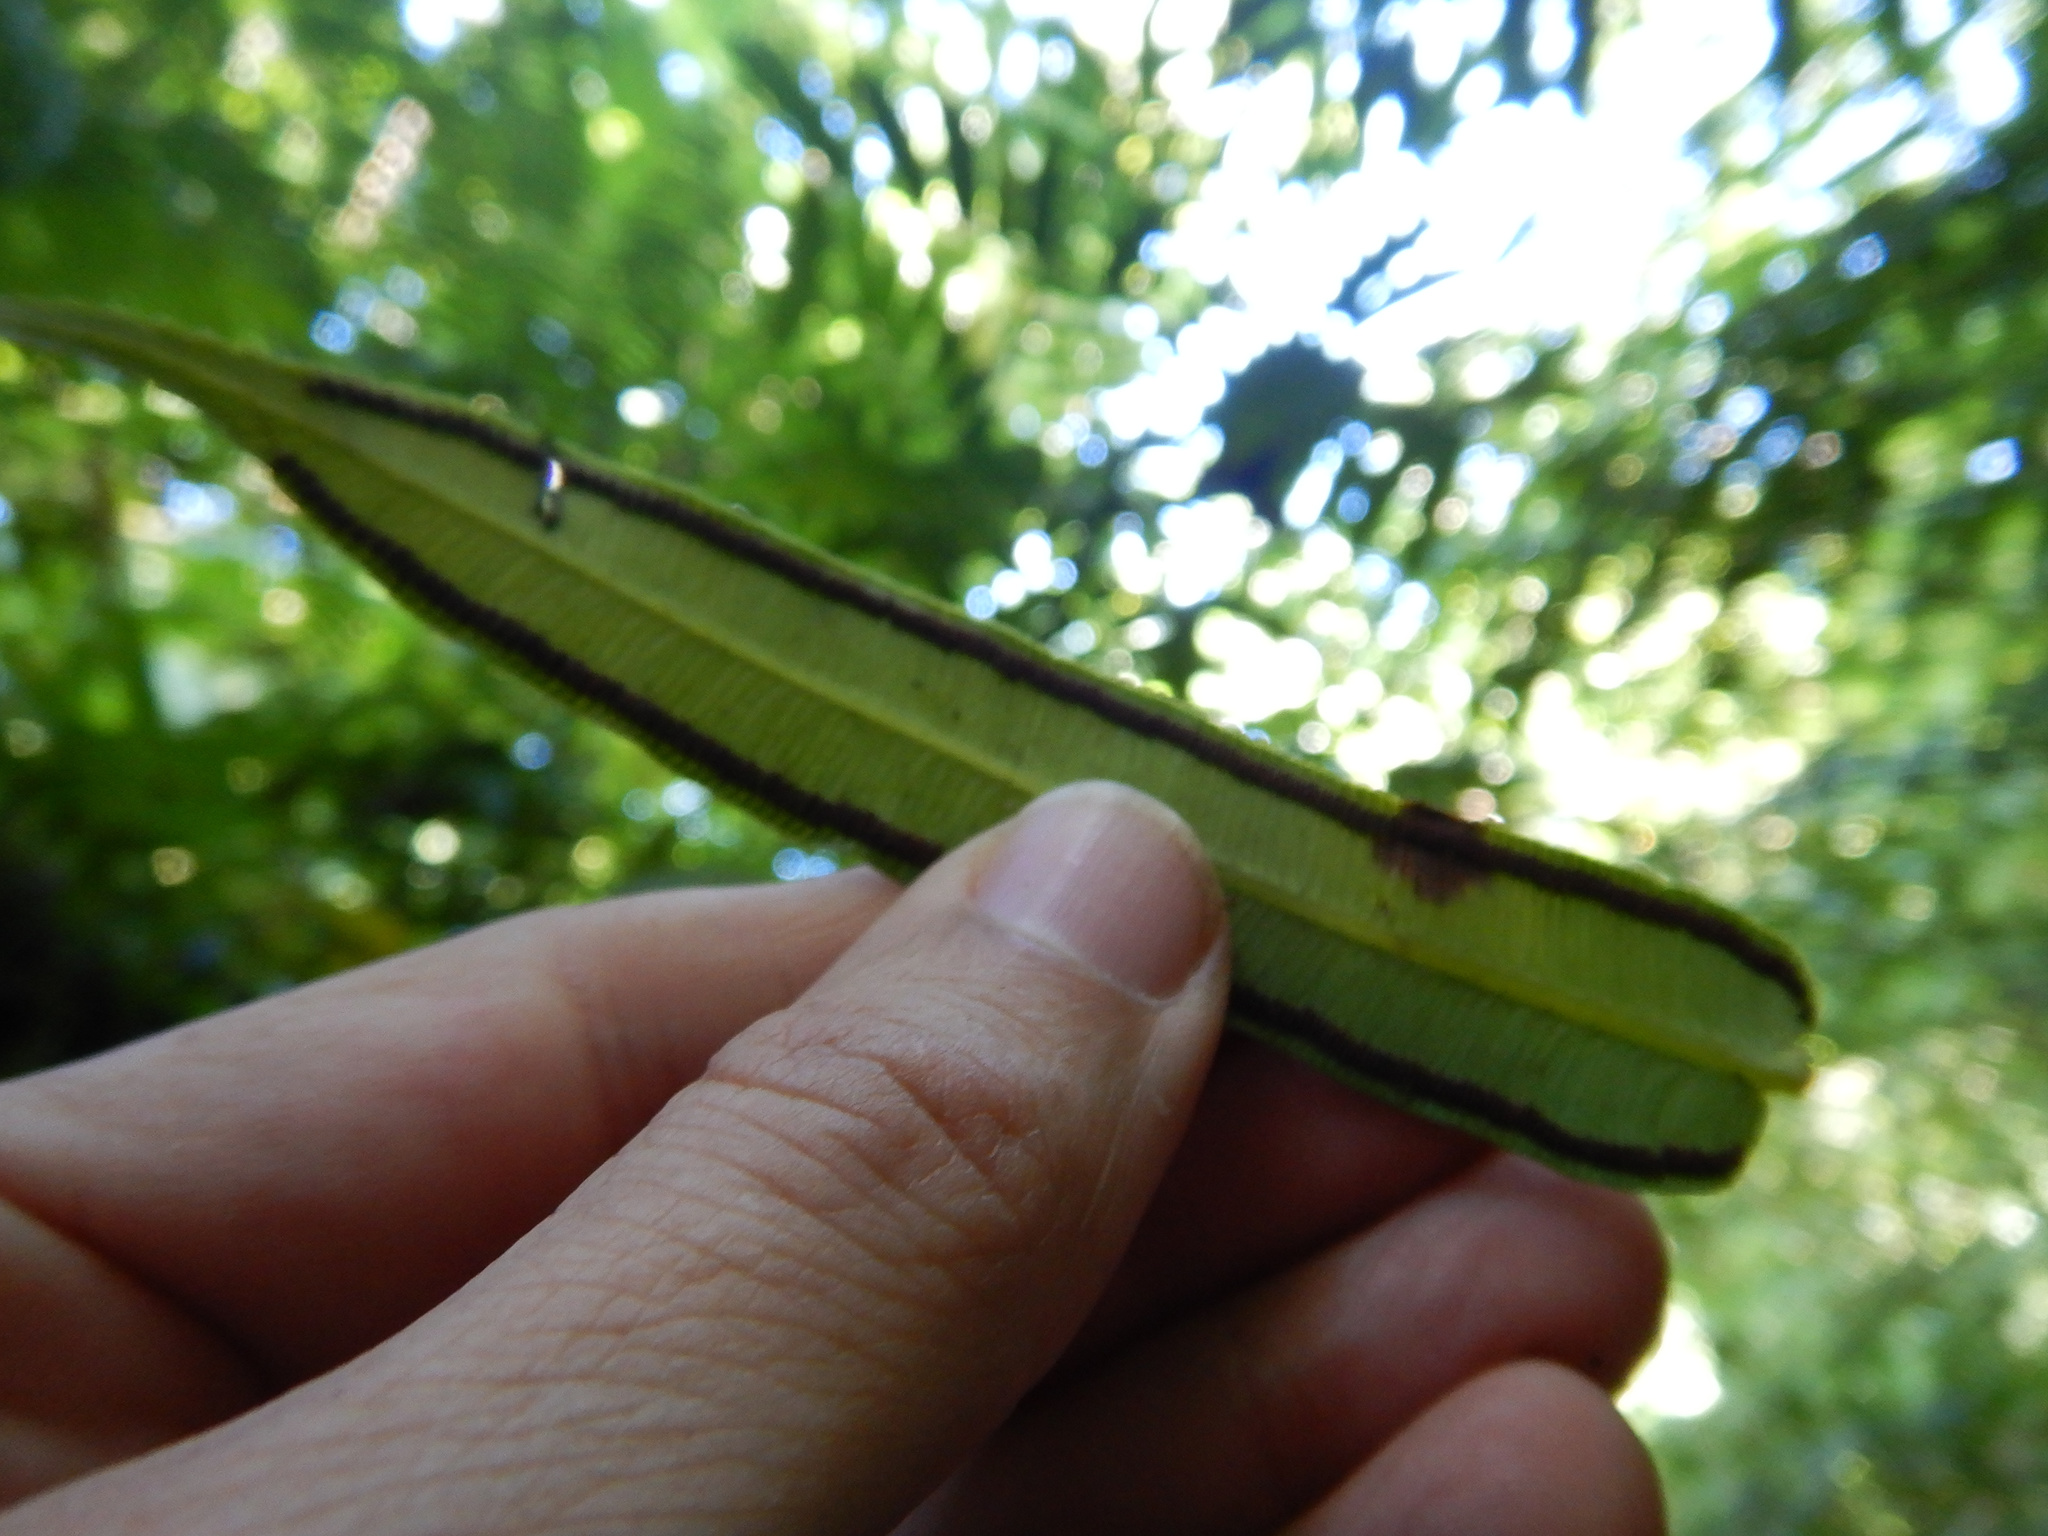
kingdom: Plantae
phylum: Tracheophyta
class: Polypodiopsida
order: Marattiales
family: Marattiaceae
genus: Angiopteris
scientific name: Angiopteris evecta
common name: Mule's-foot fern
